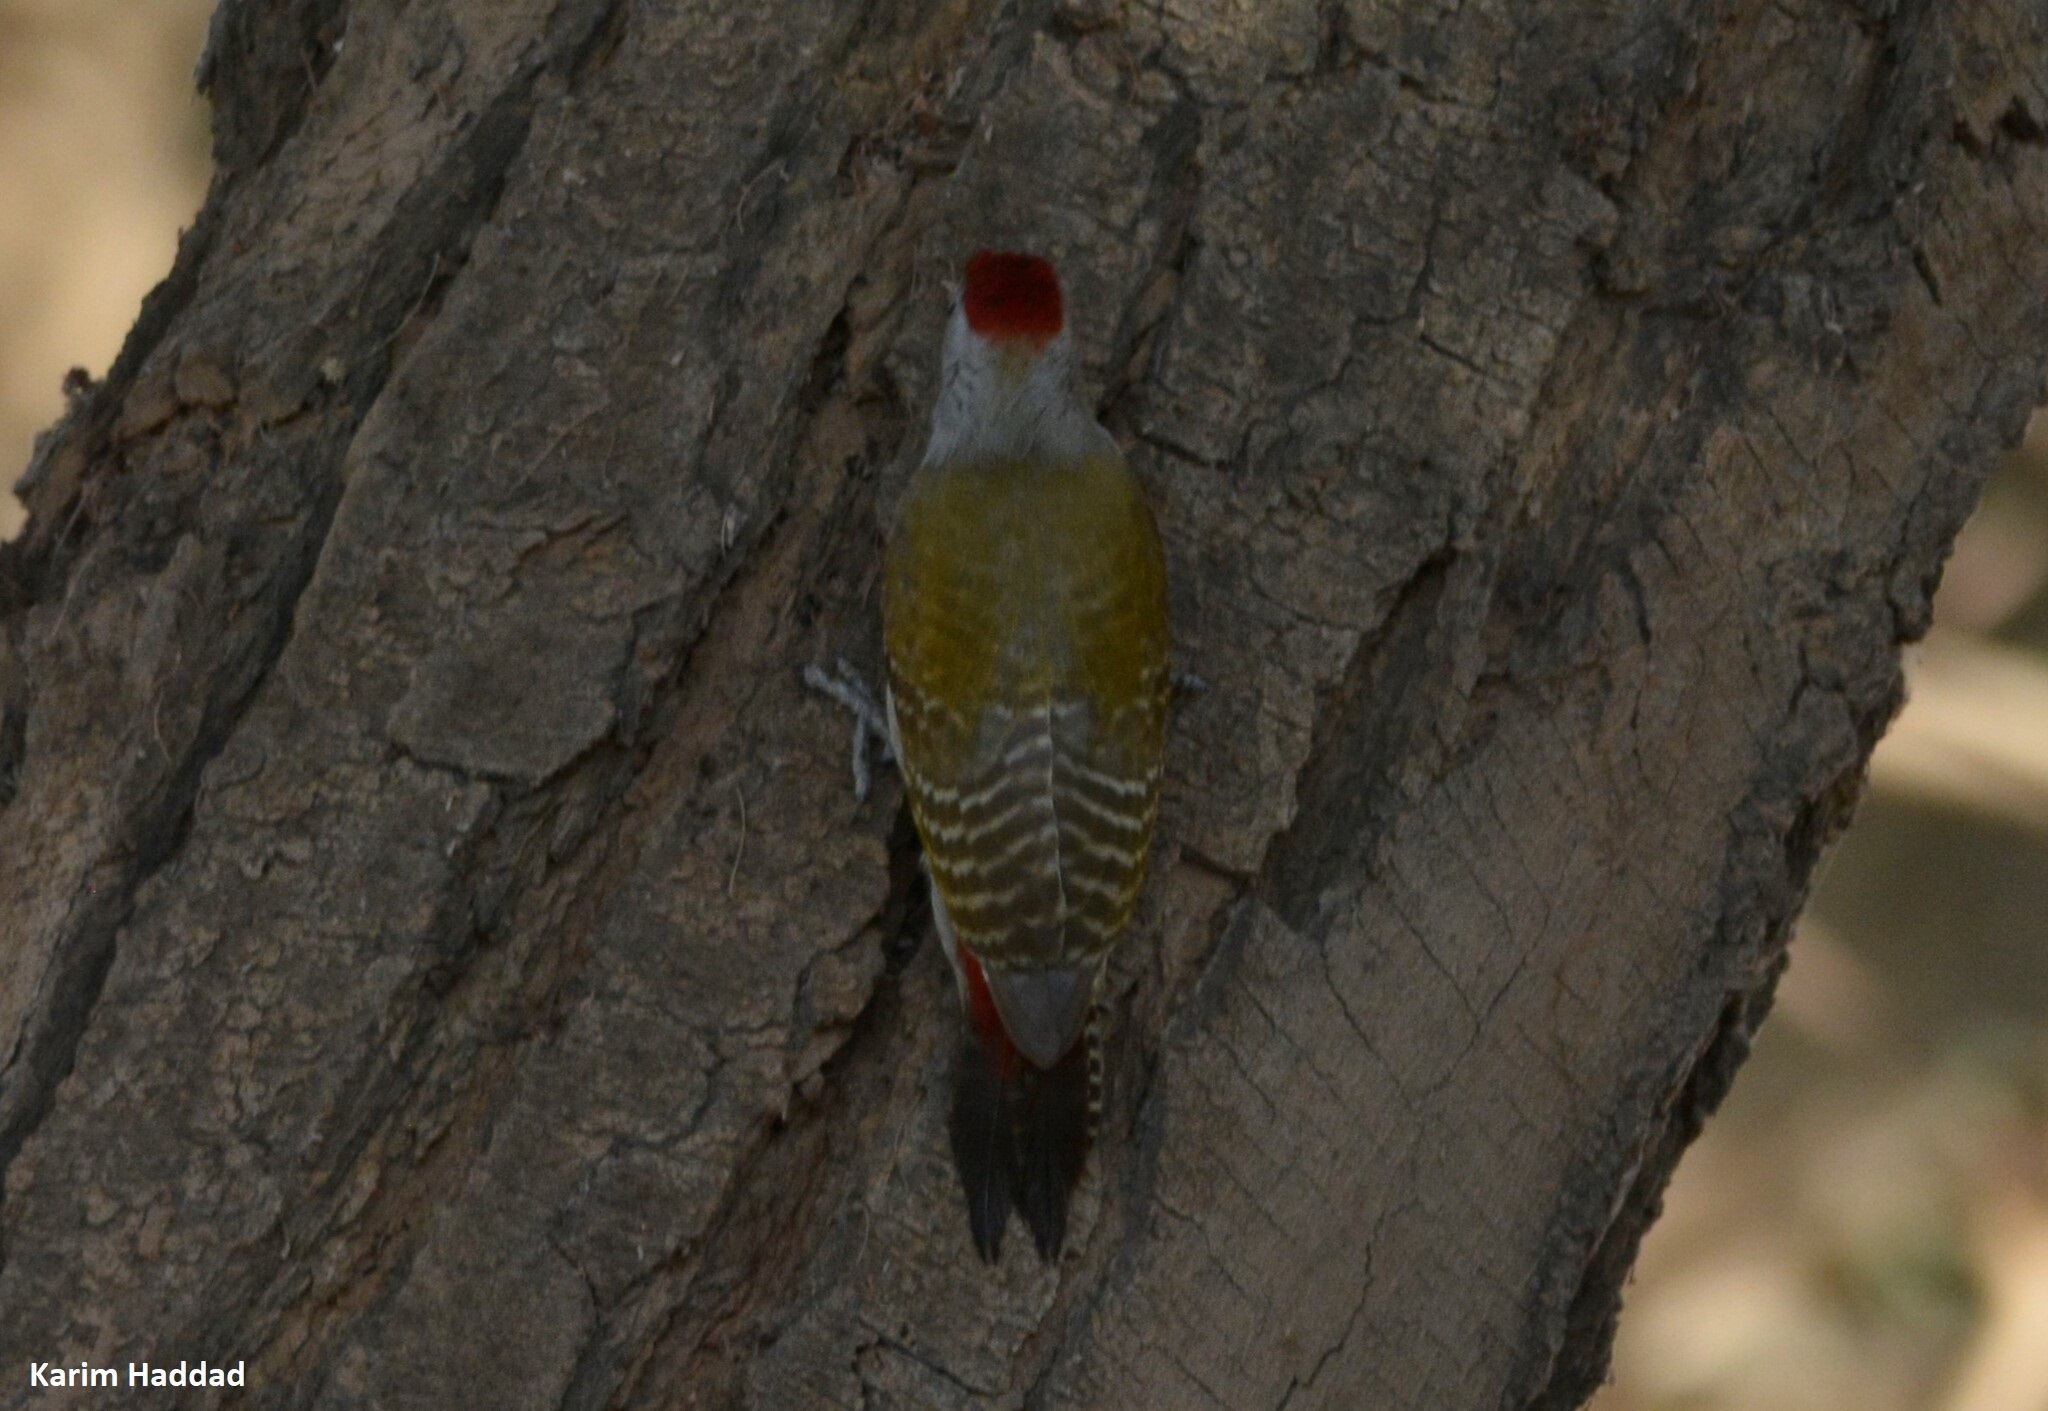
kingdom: Animalia
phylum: Chordata
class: Aves
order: Piciformes
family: Picidae
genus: Dendropicos
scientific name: Dendropicos goertae
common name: African grey woodpecker
